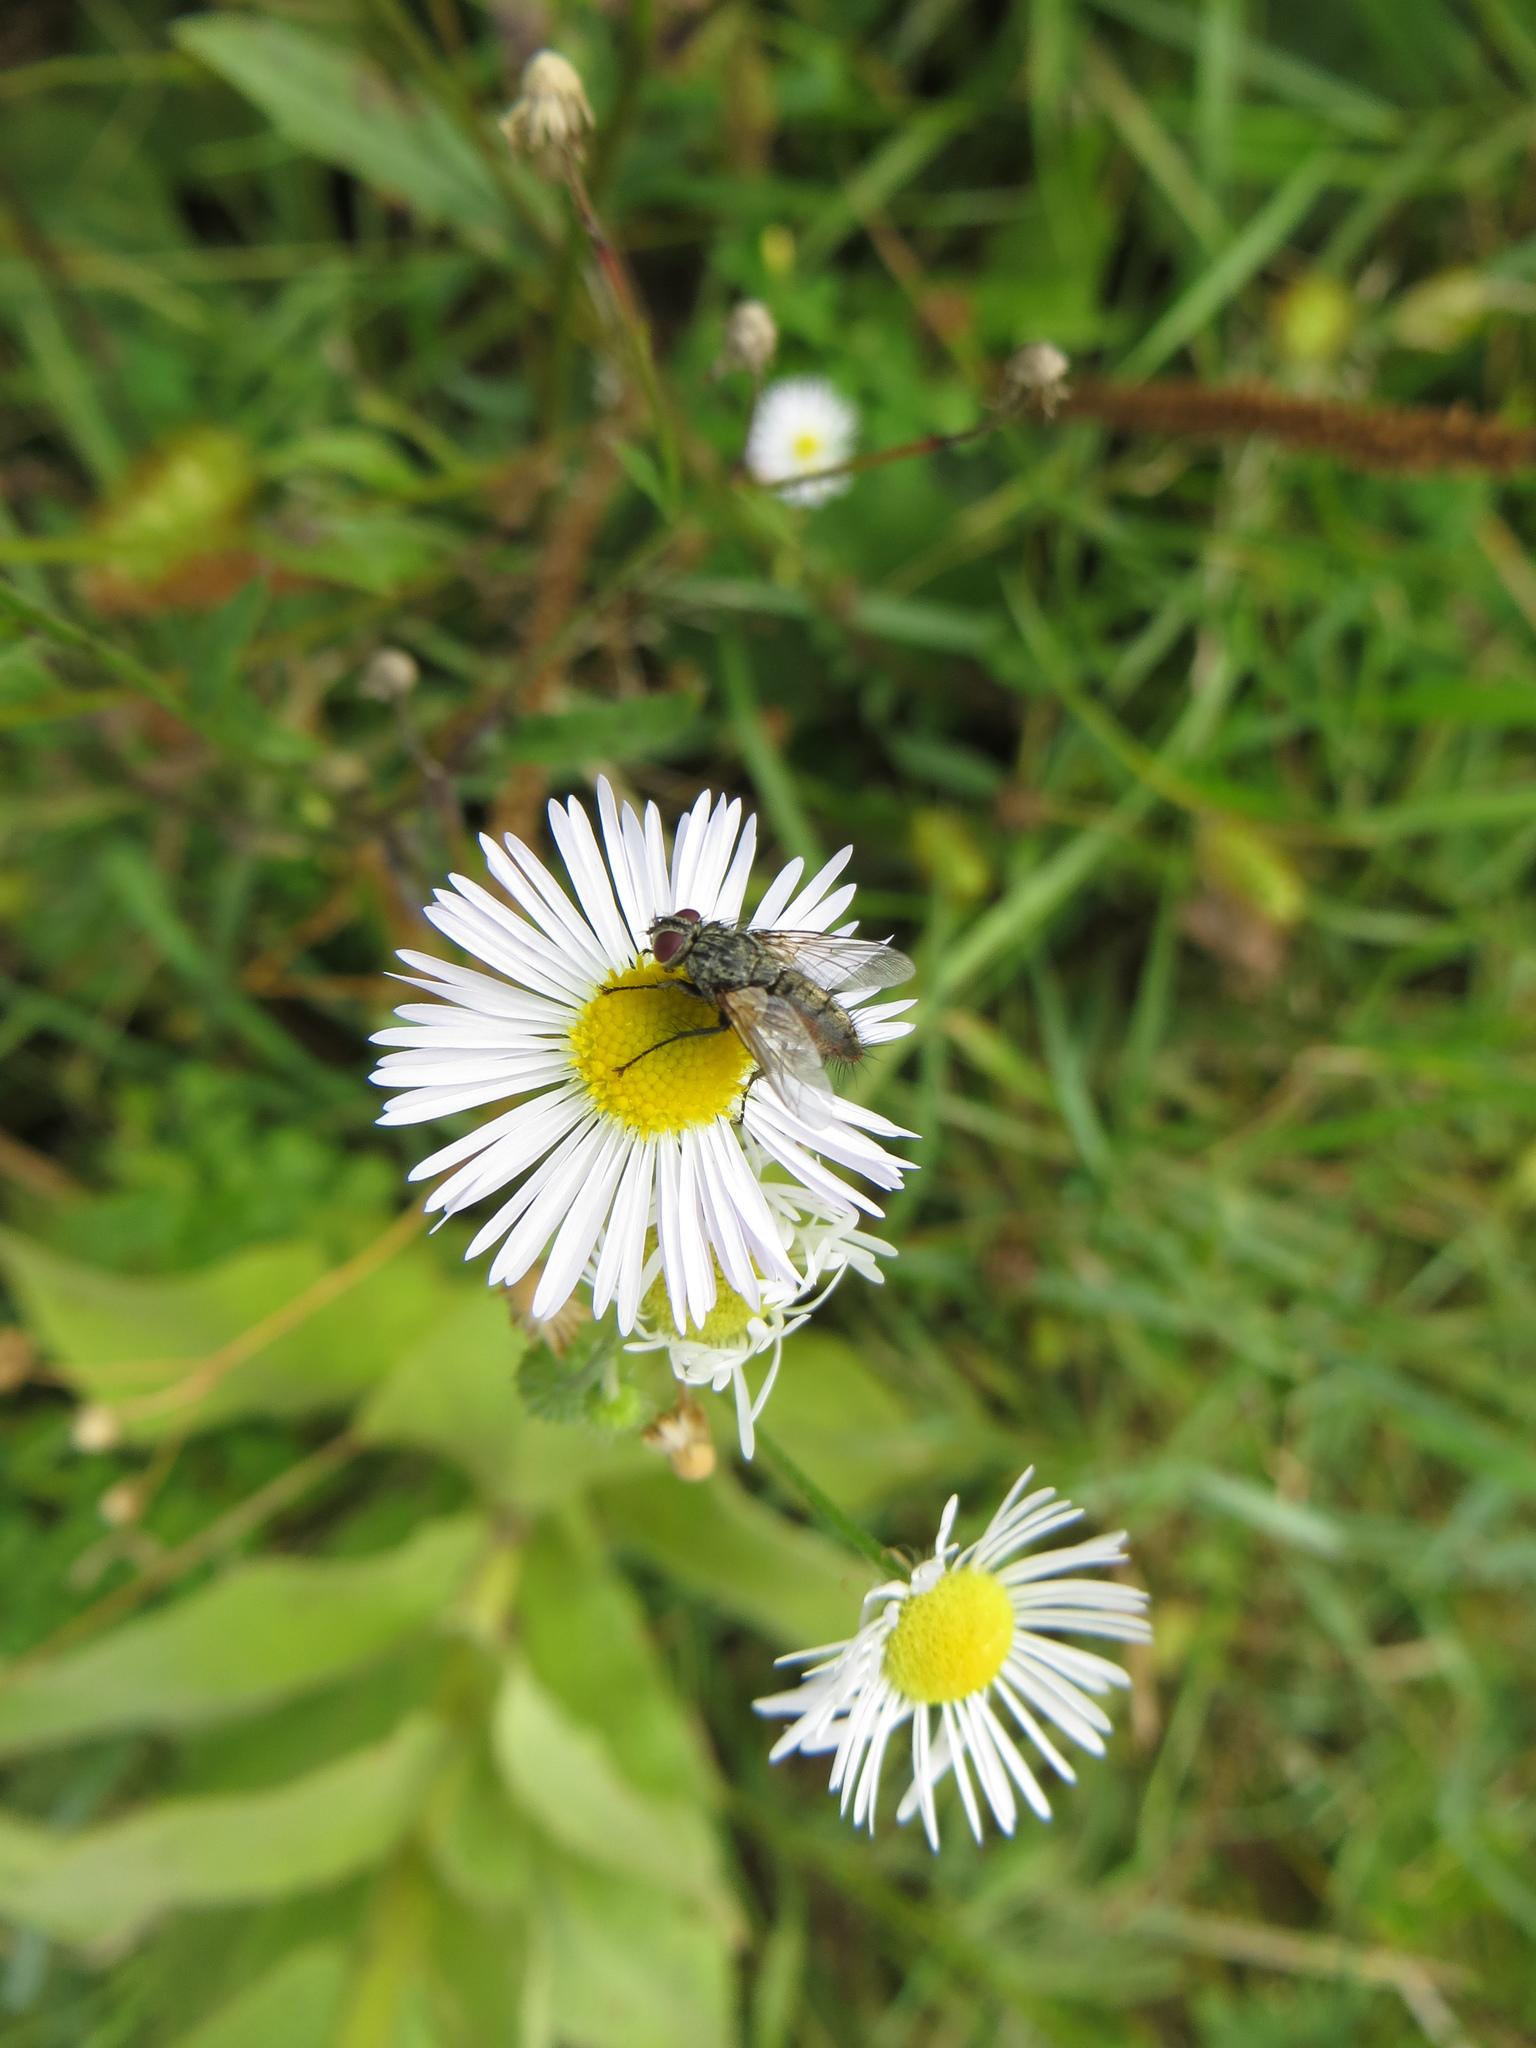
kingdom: Animalia
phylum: Arthropoda
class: Insecta
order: Diptera
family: Tachinidae
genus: Zeuxia
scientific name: Zeuxia cinerea
